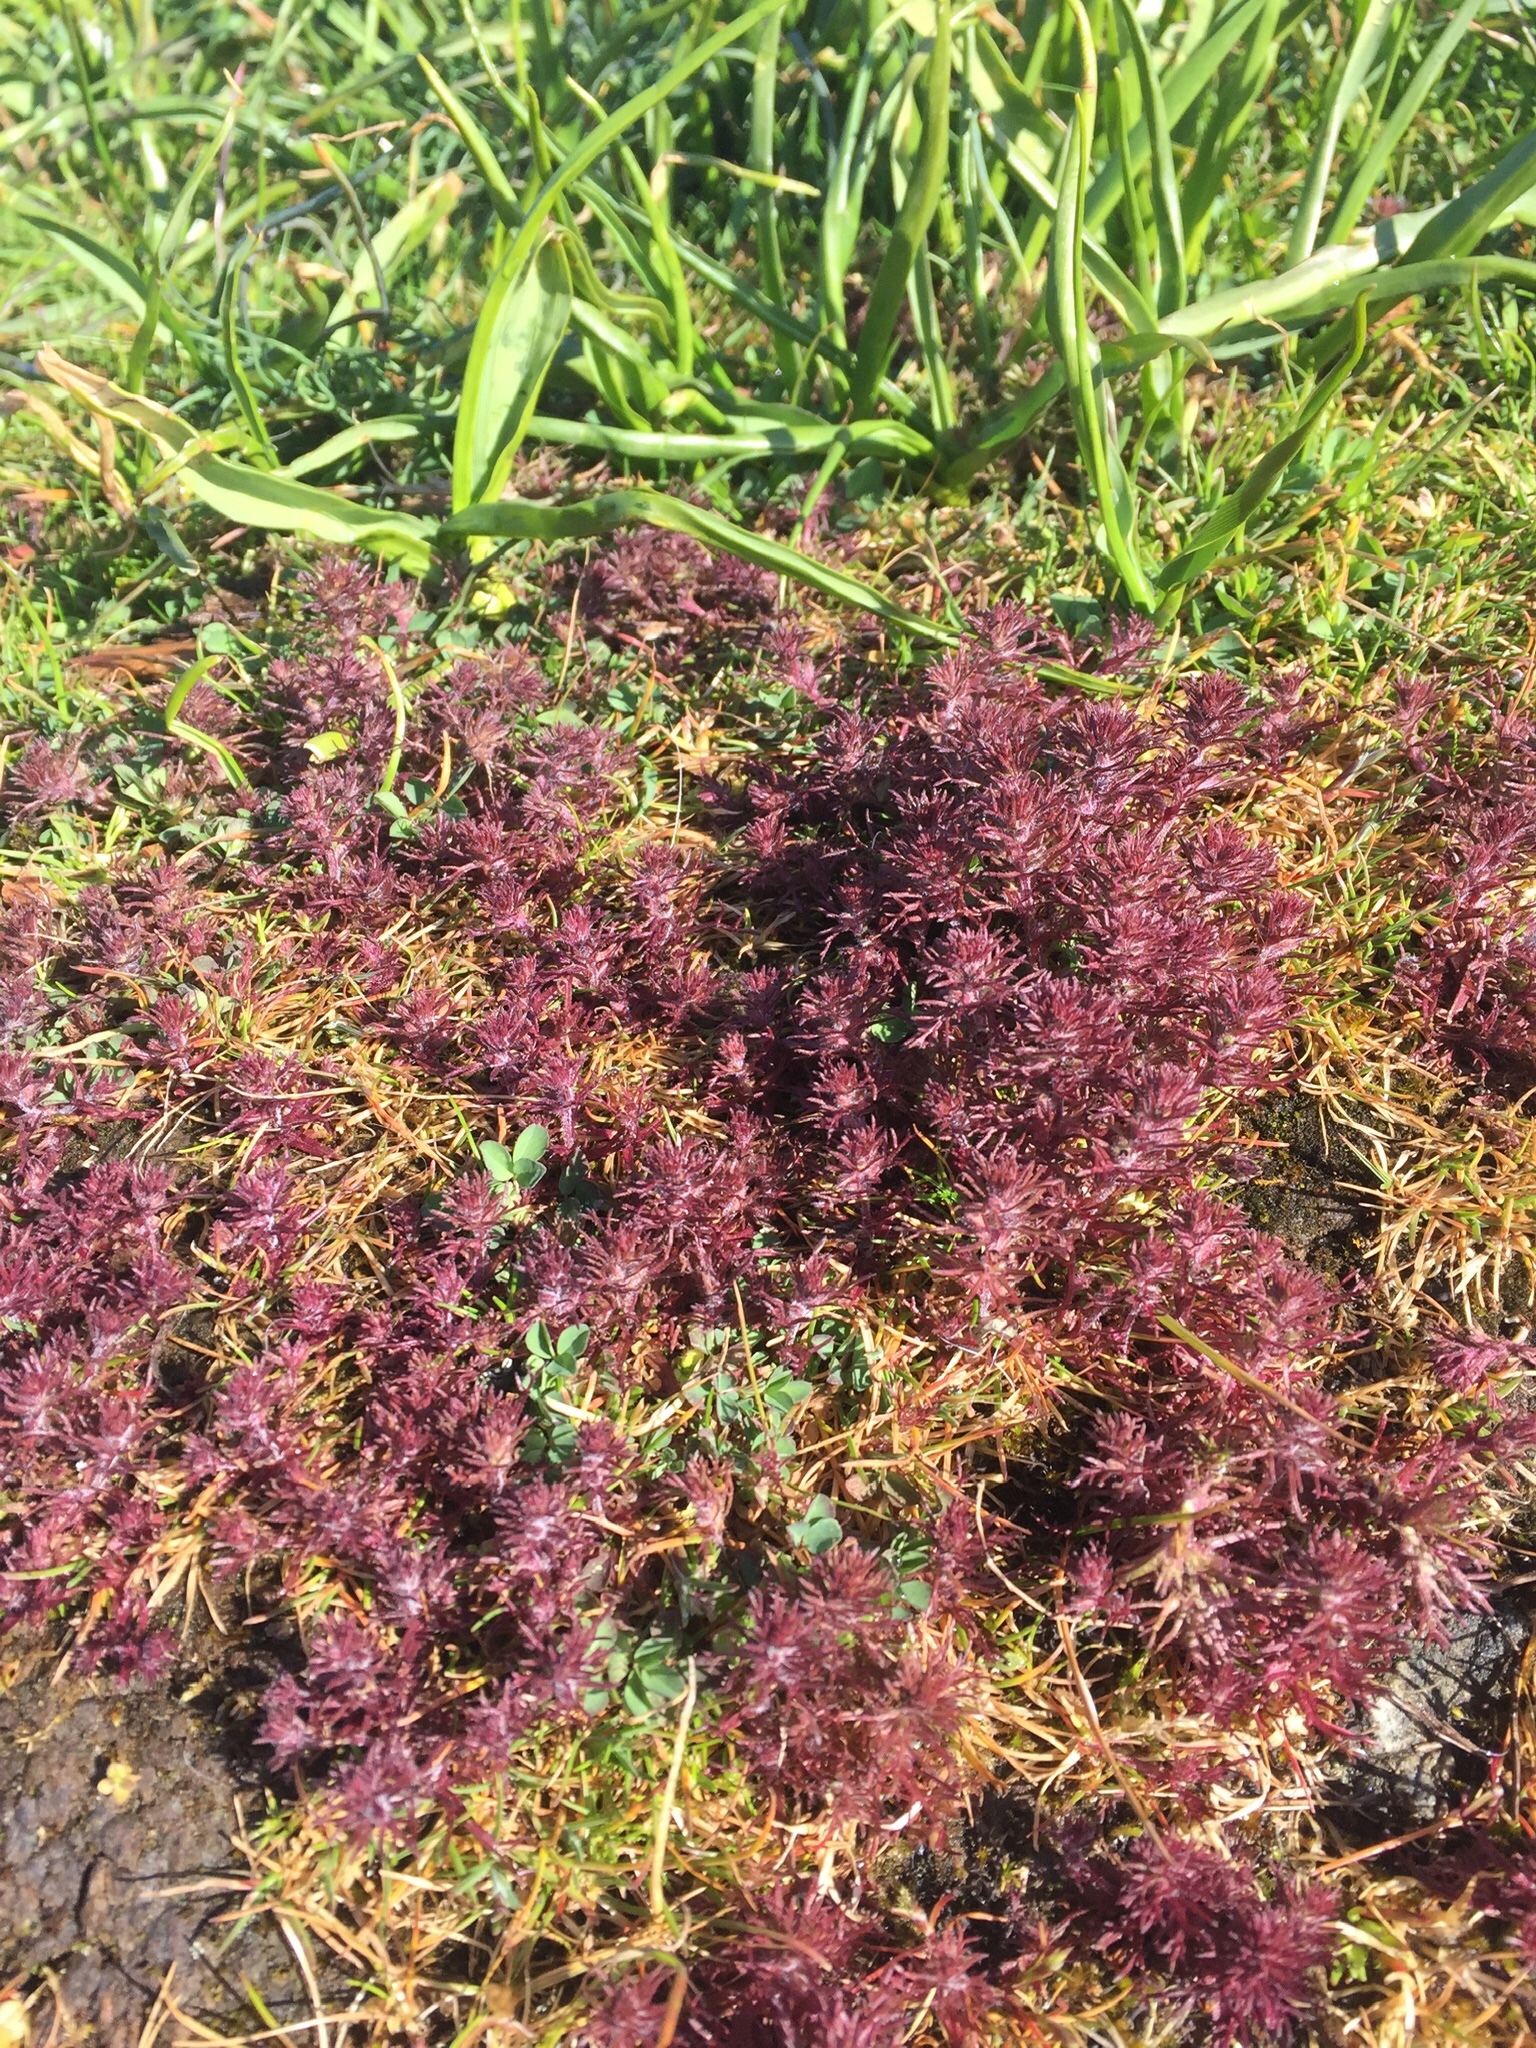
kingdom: Plantae
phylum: Tracheophyta
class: Magnoliopsida
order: Lamiales
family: Orobanchaceae
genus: Triphysaria
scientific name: Triphysaria pusilla
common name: Dwarf false owl-clover
